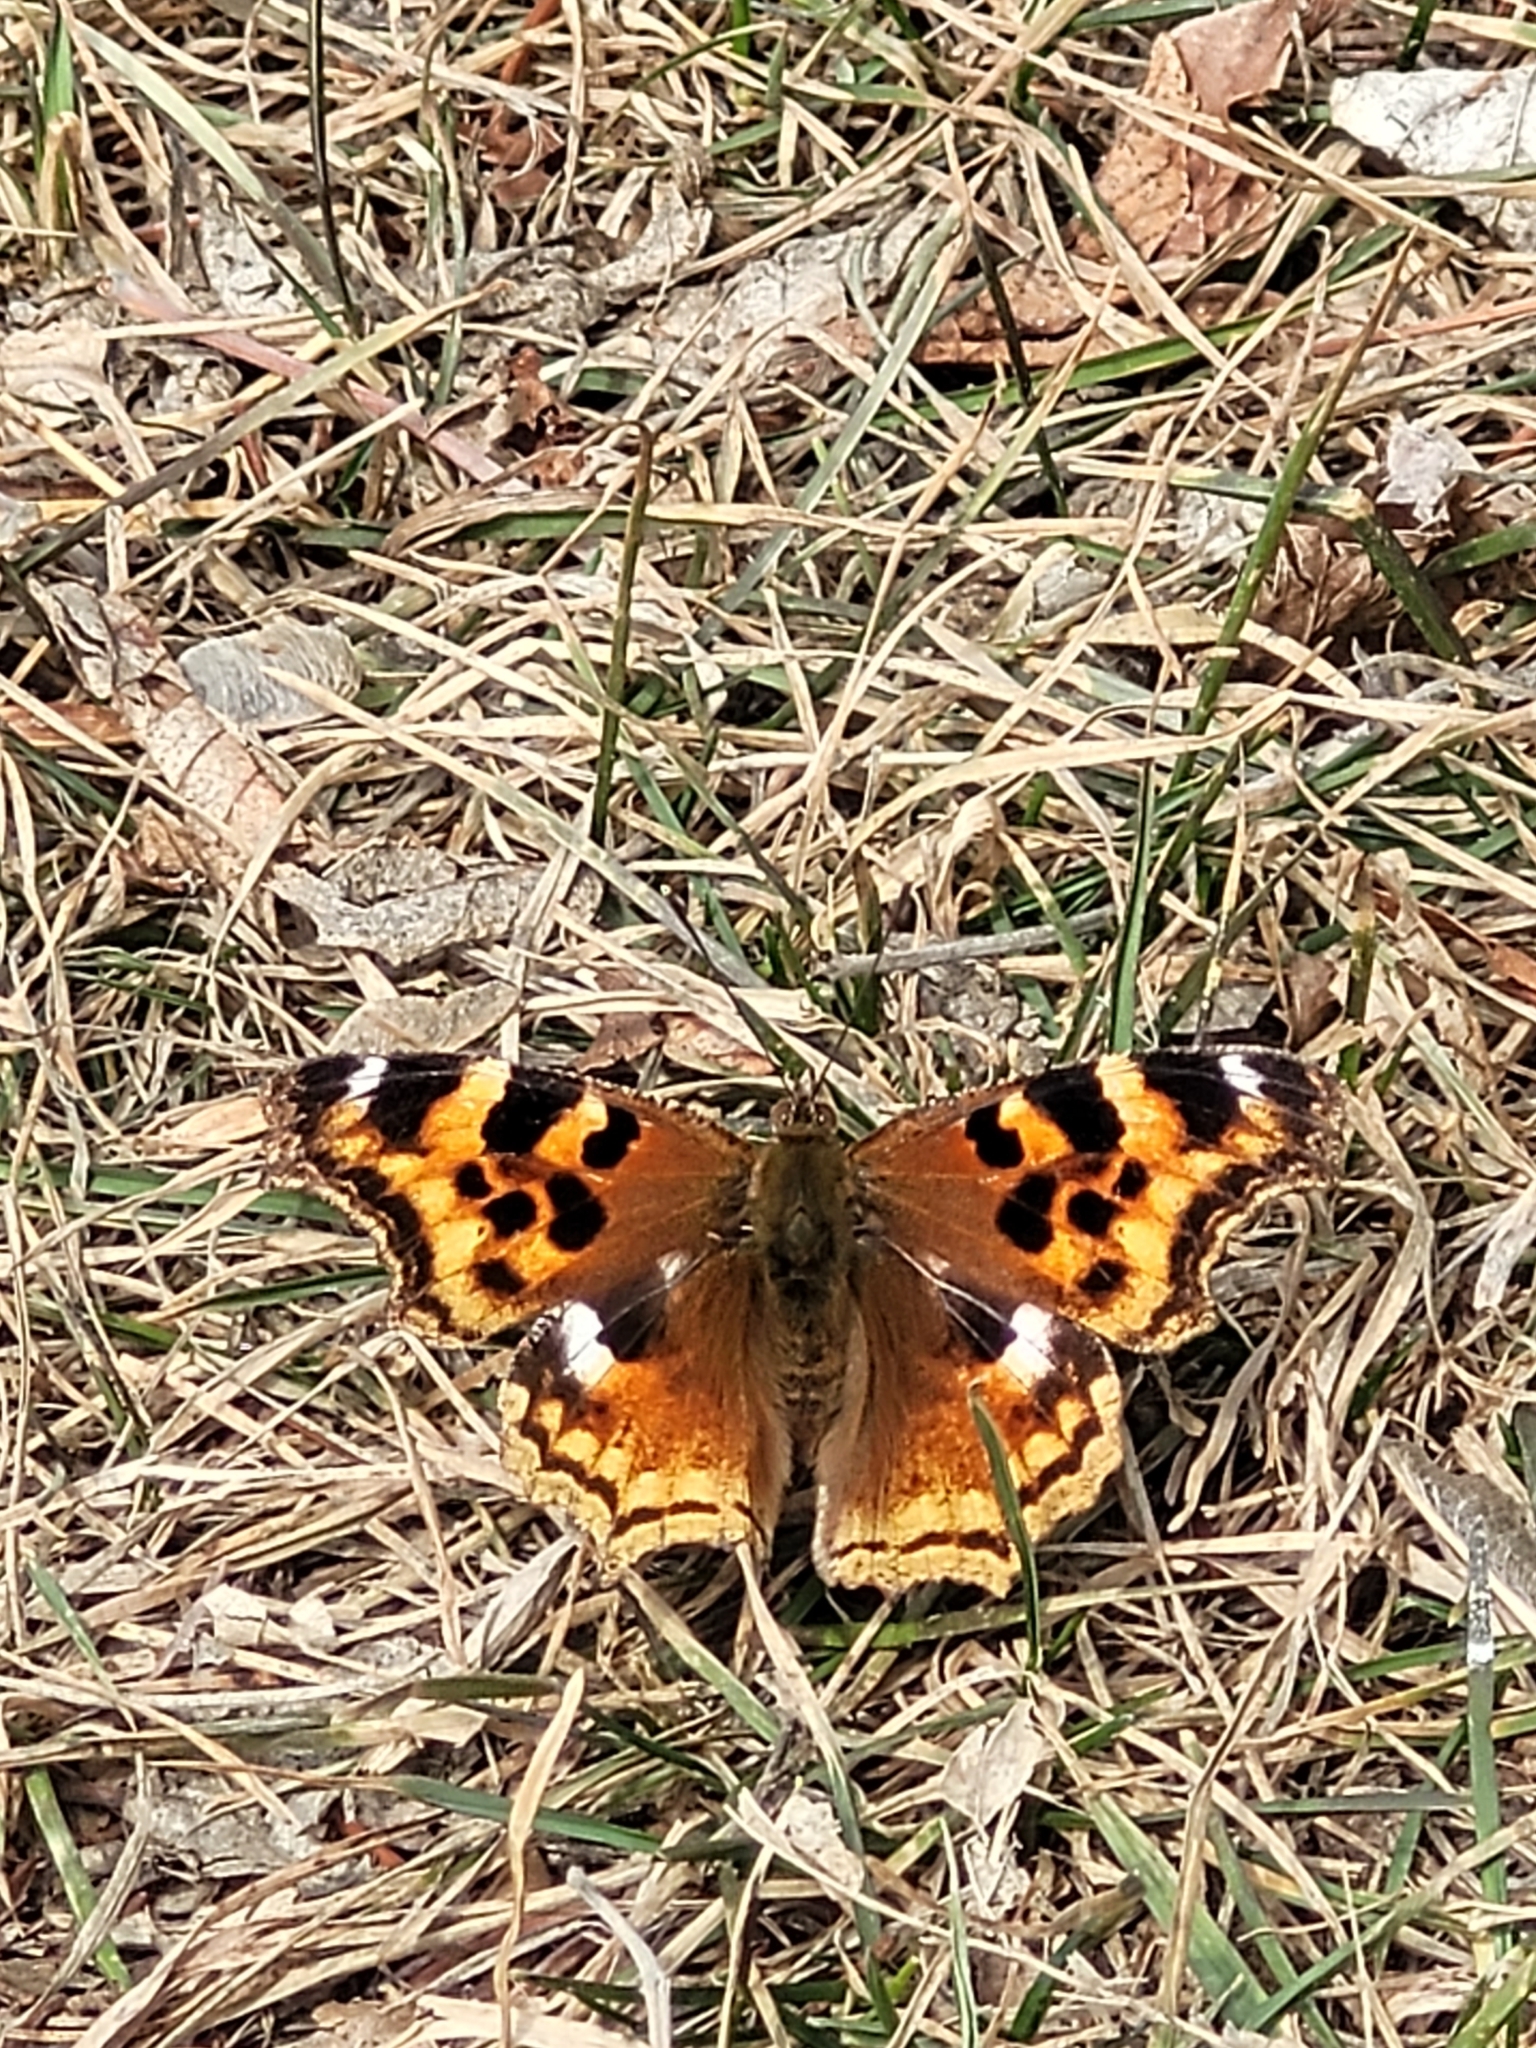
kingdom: Animalia
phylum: Arthropoda
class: Insecta
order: Lepidoptera
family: Nymphalidae
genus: Polygonia
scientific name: Polygonia vaualbum
